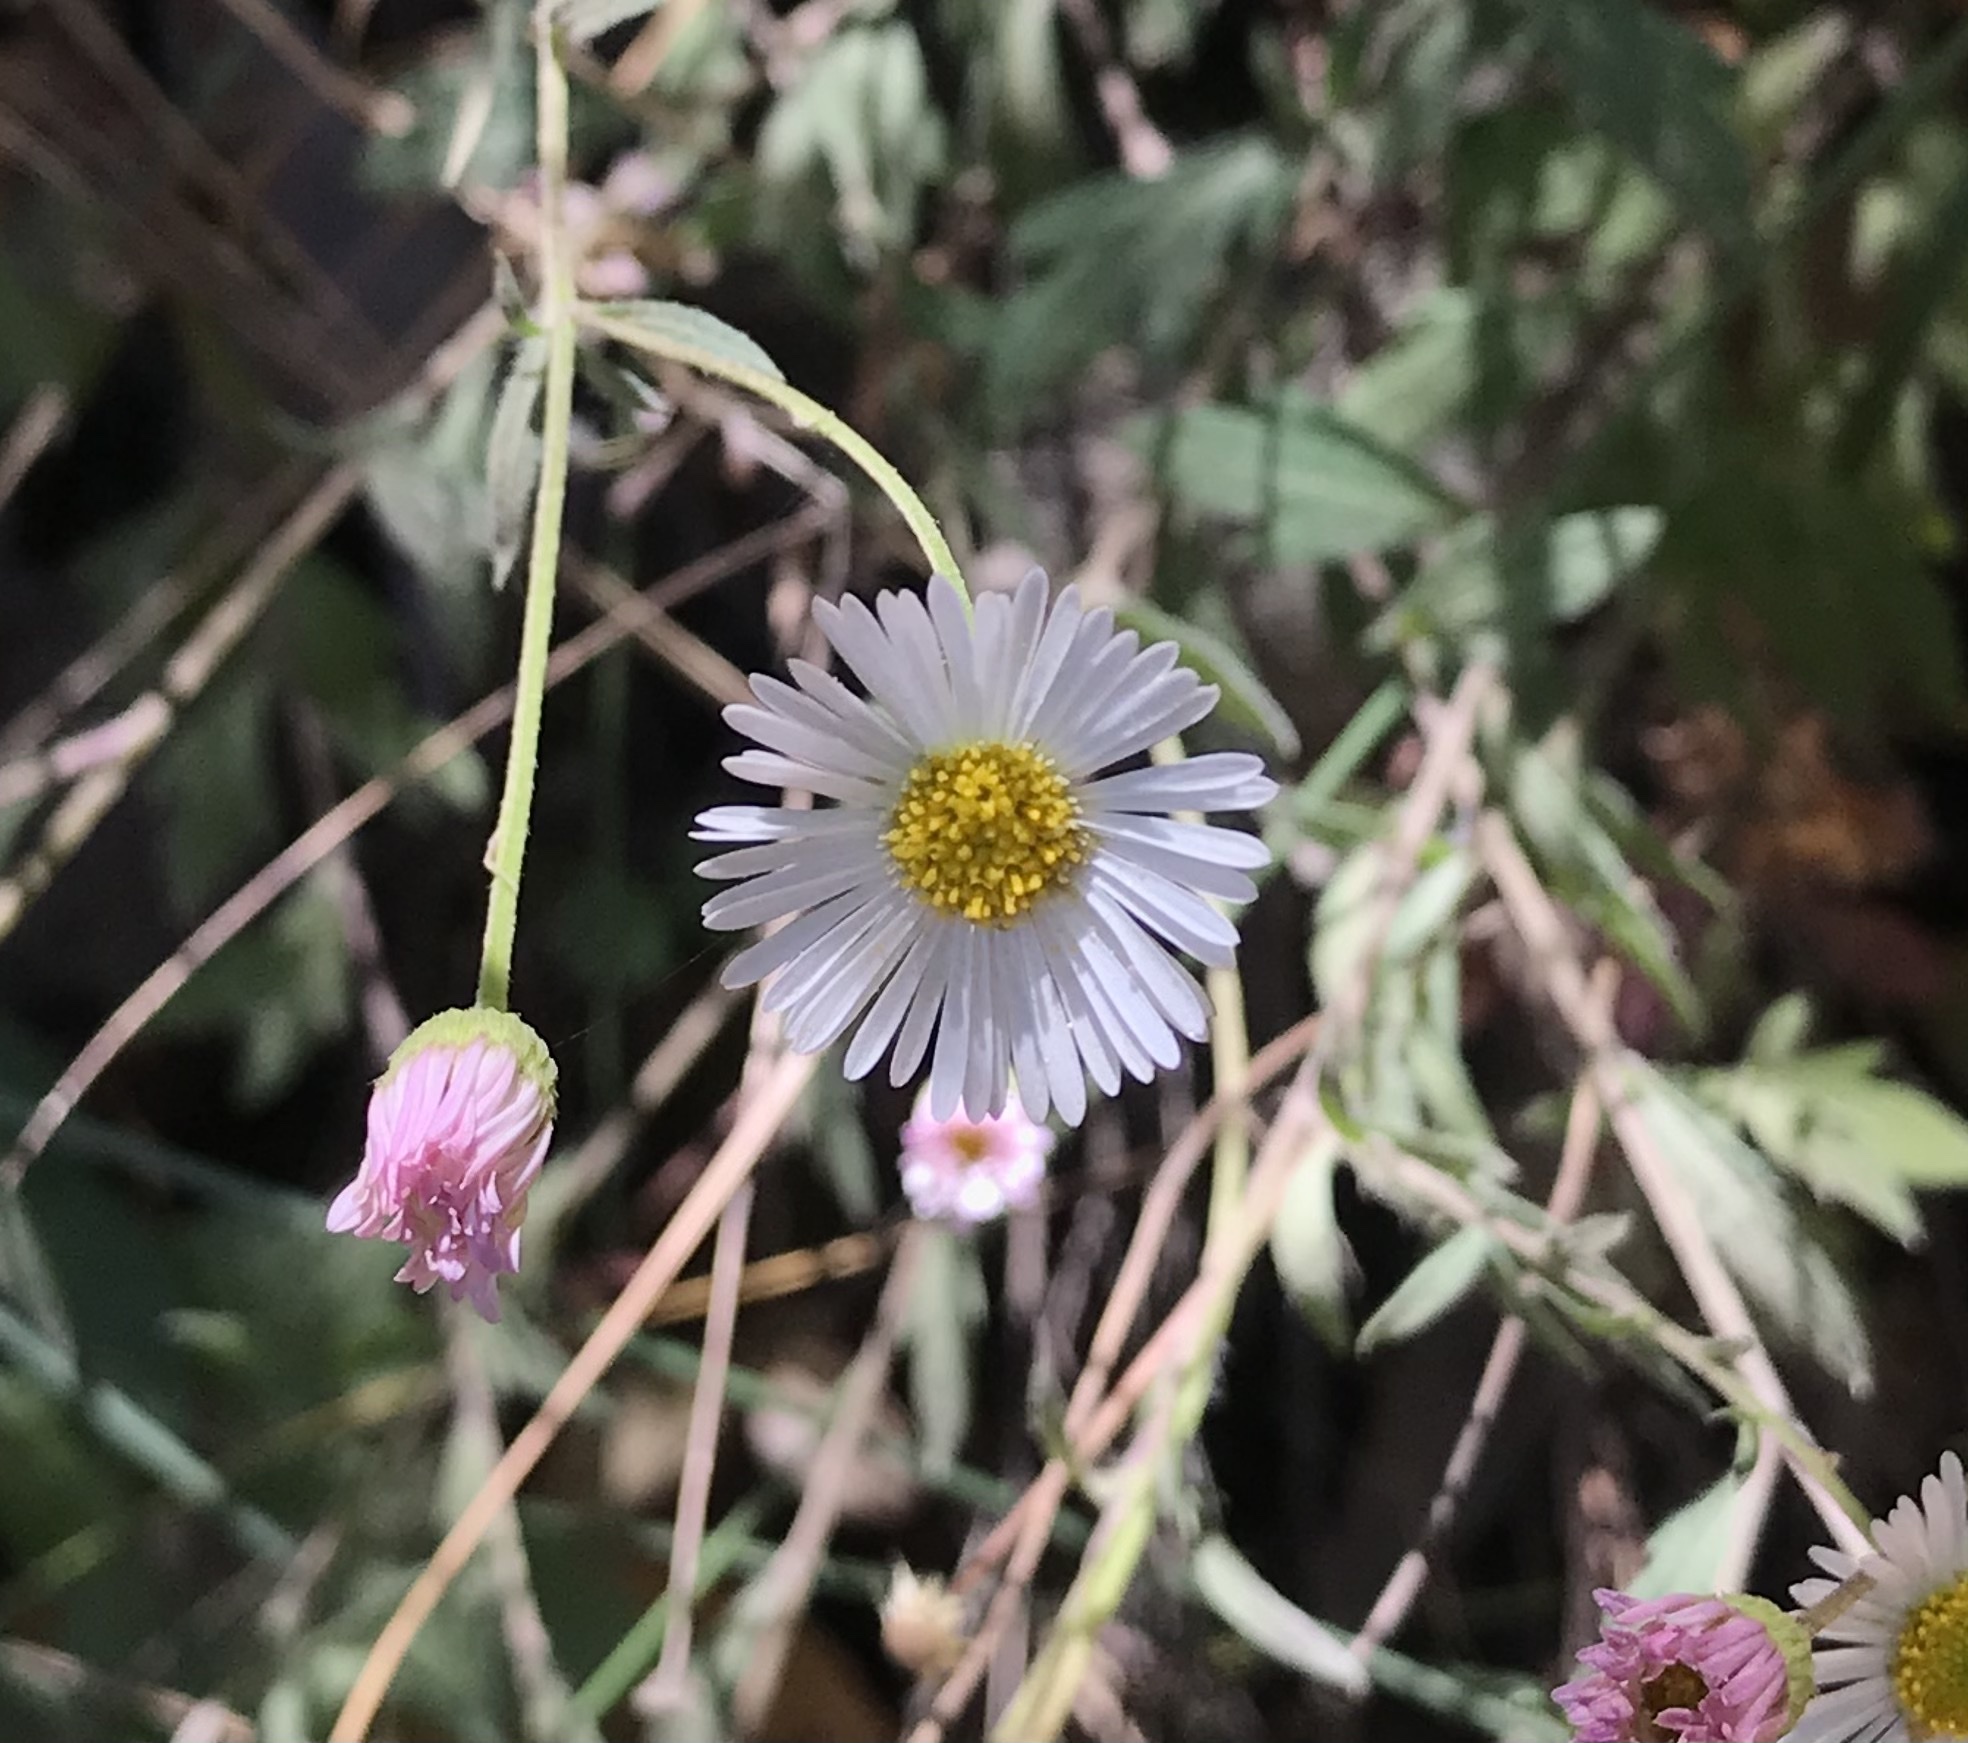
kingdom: Plantae
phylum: Tracheophyta
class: Magnoliopsida
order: Asterales
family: Asteraceae
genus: Erigeron
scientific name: Erigeron karvinskianus
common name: Mexican fleabane
